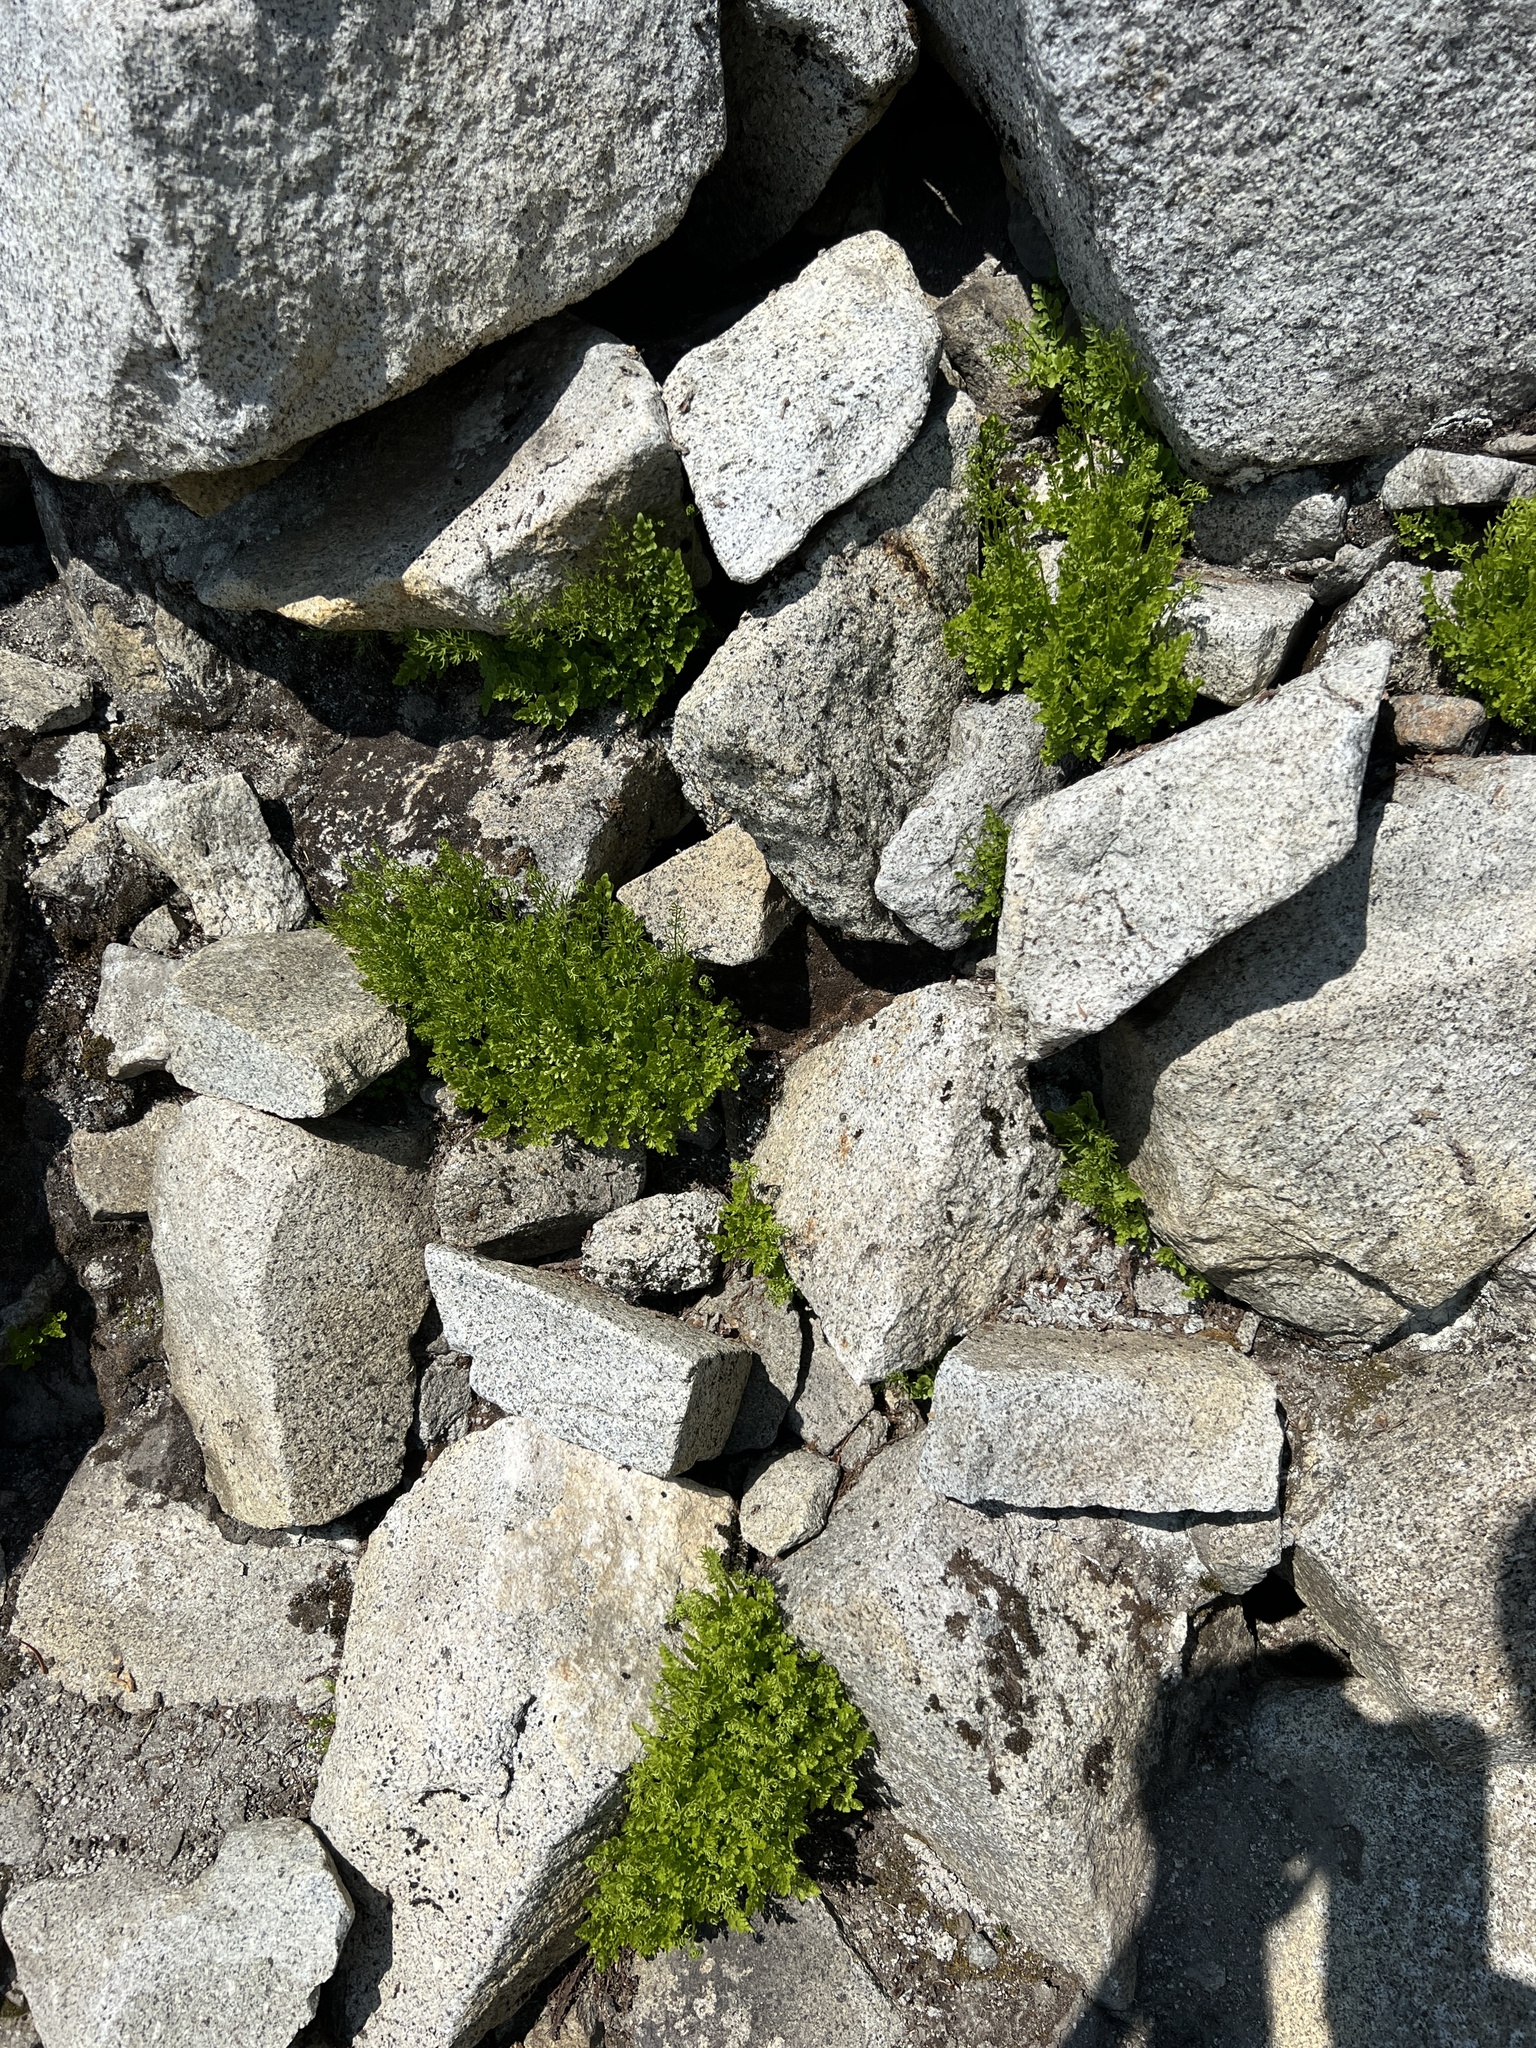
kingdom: Plantae
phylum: Tracheophyta
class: Polypodiopsida
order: Polypodiales
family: Pteridaceae
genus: Cryptogramma
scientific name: Cryptogramma cascadensis
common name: Cascade parsley fern
